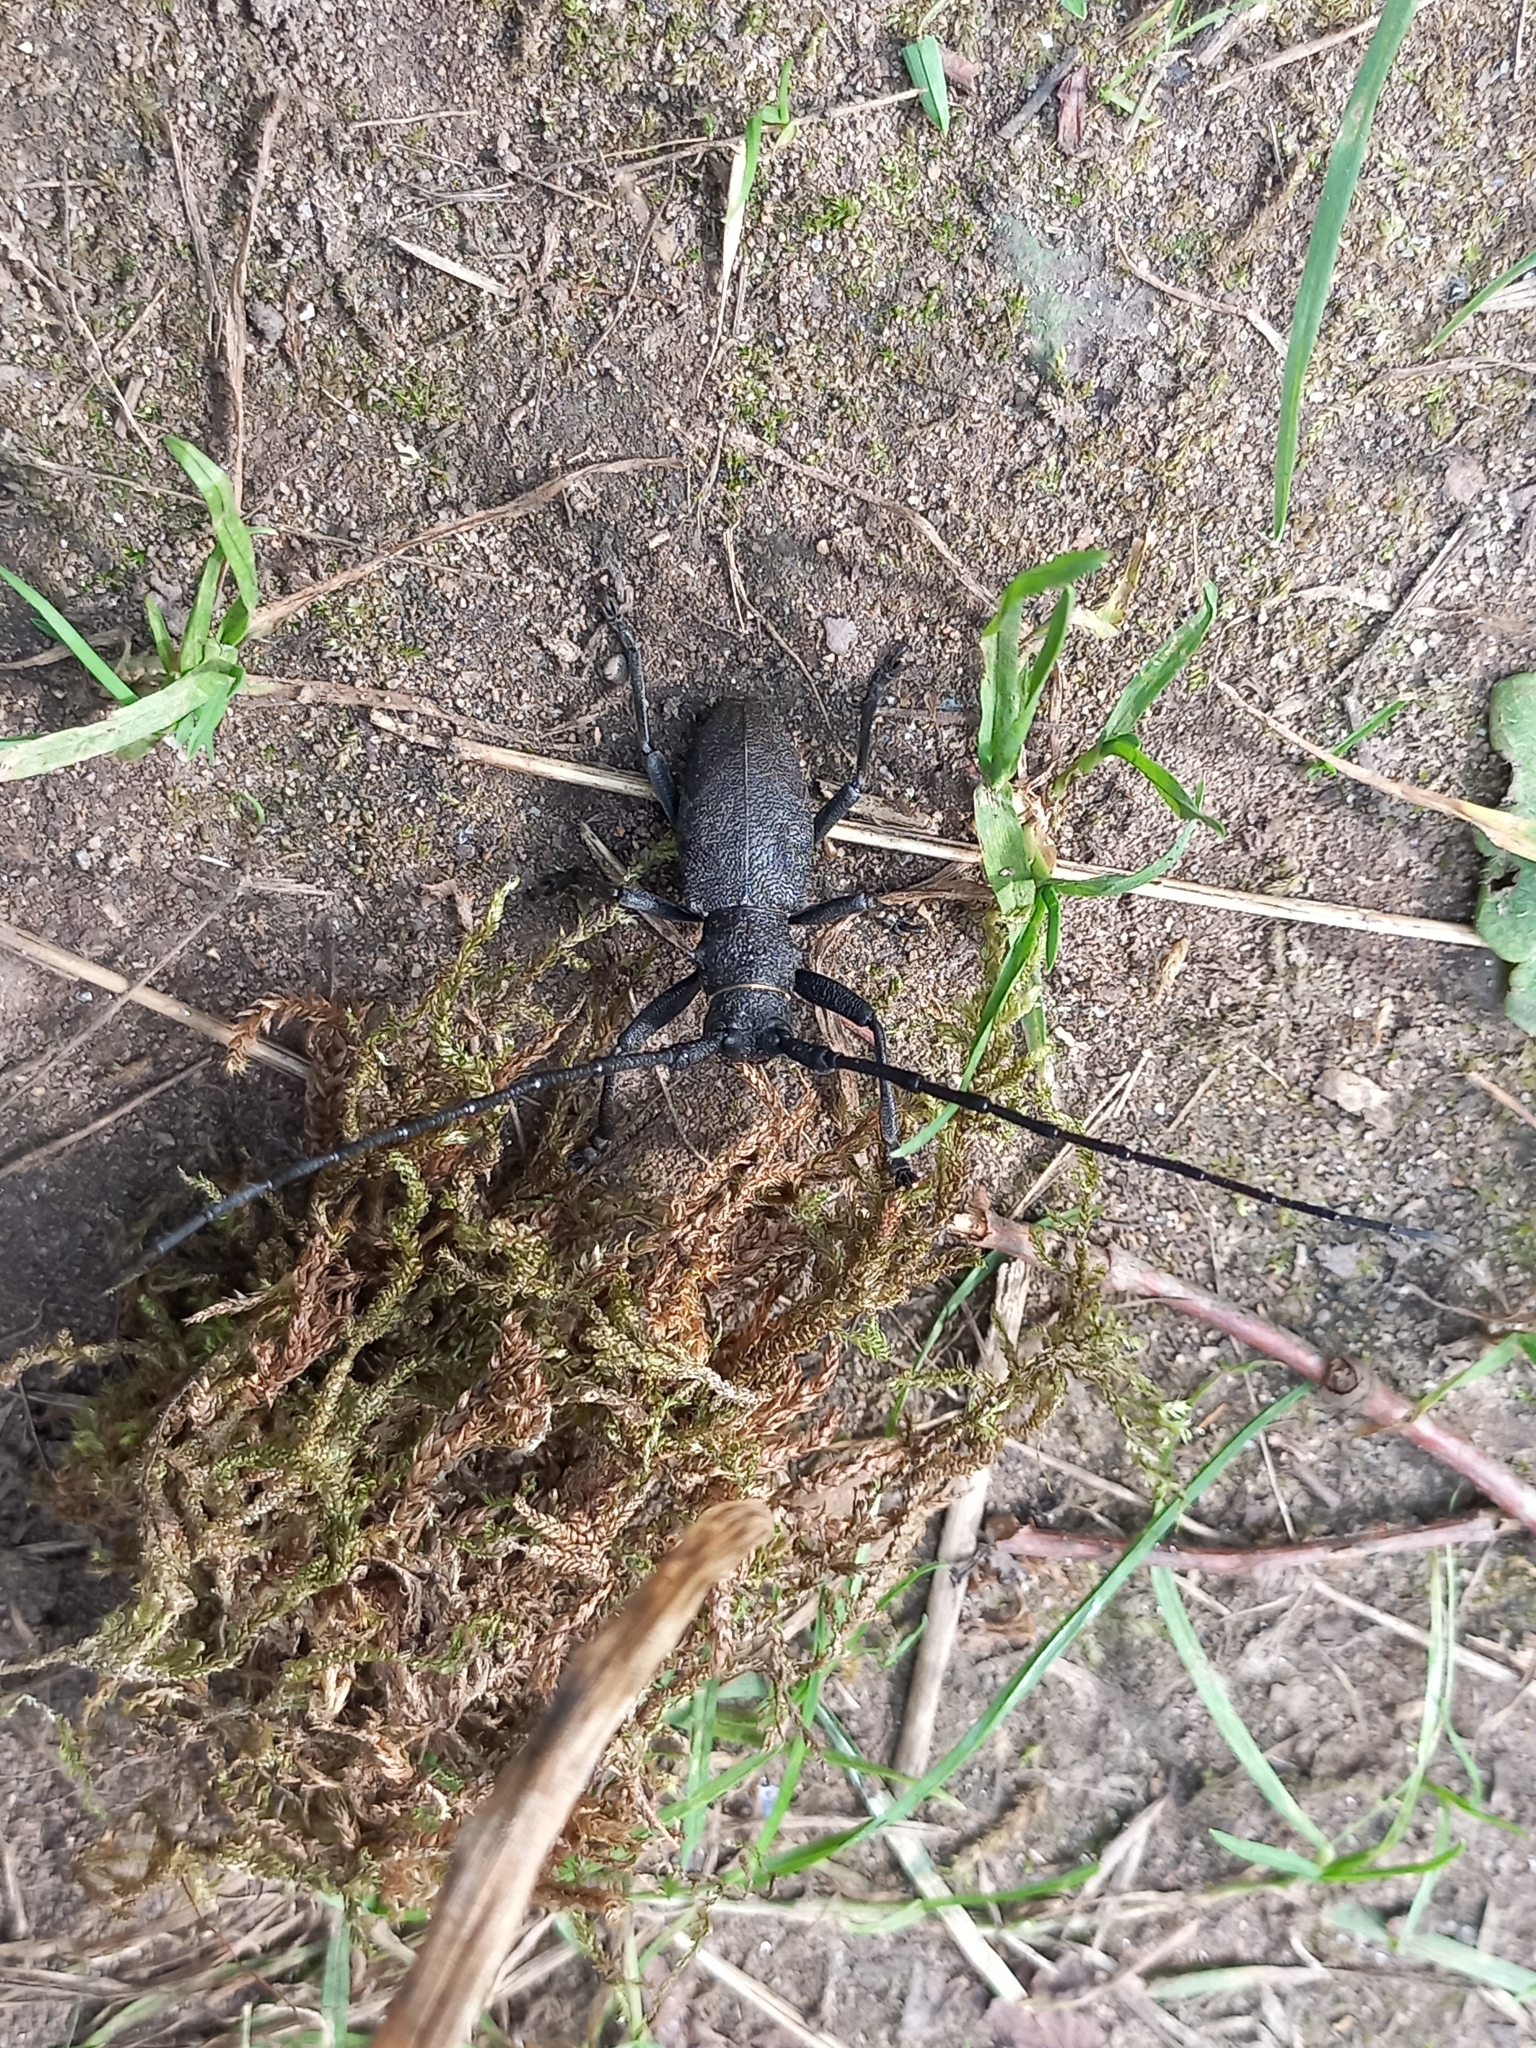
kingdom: Animalia
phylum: Arthropoda
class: Insecta
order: Coleoptera
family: Cerambycidae
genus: Morimus
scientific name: Morimus asper
